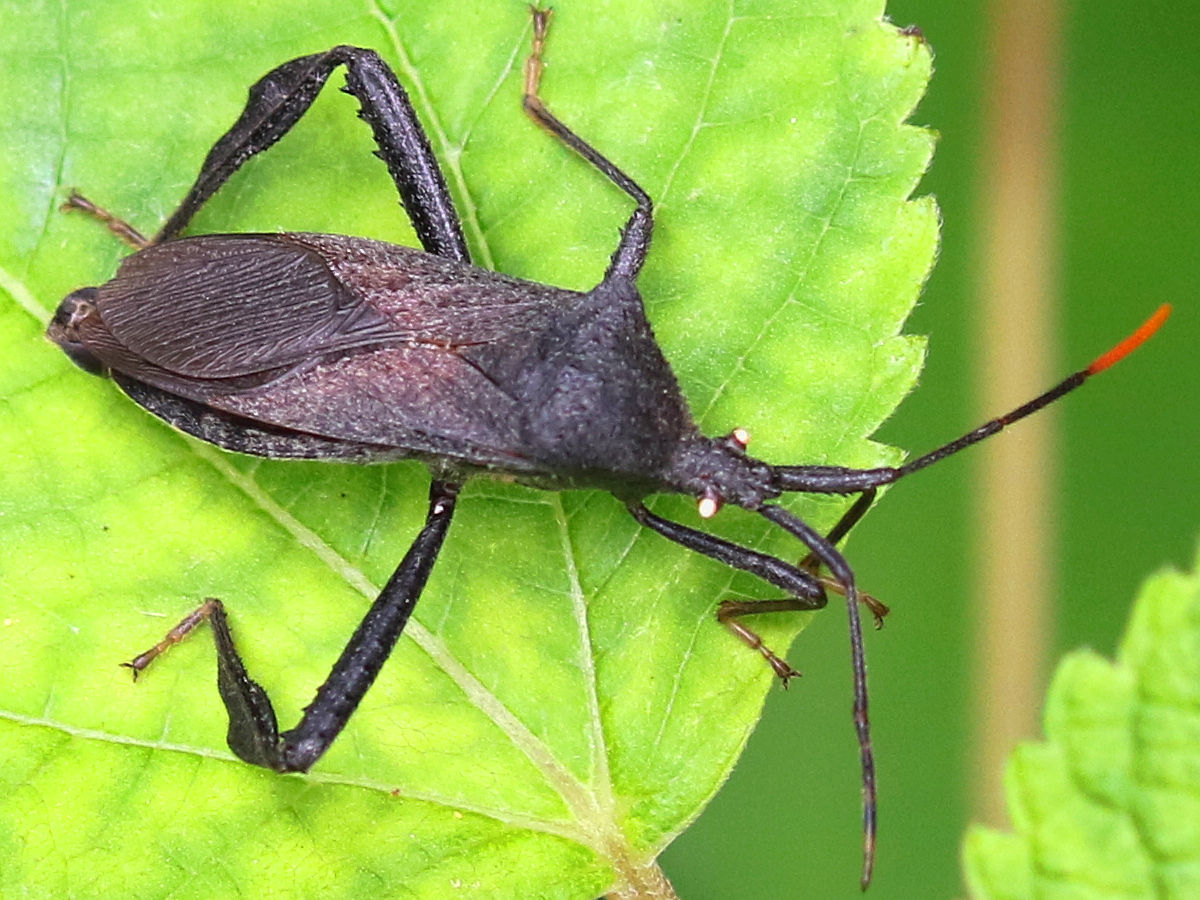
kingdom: Animalia
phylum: Arthropoda
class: Insecta
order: Hemiptera
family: Coreidae
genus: Acanthocephala
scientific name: Acanthocephala terminalis
